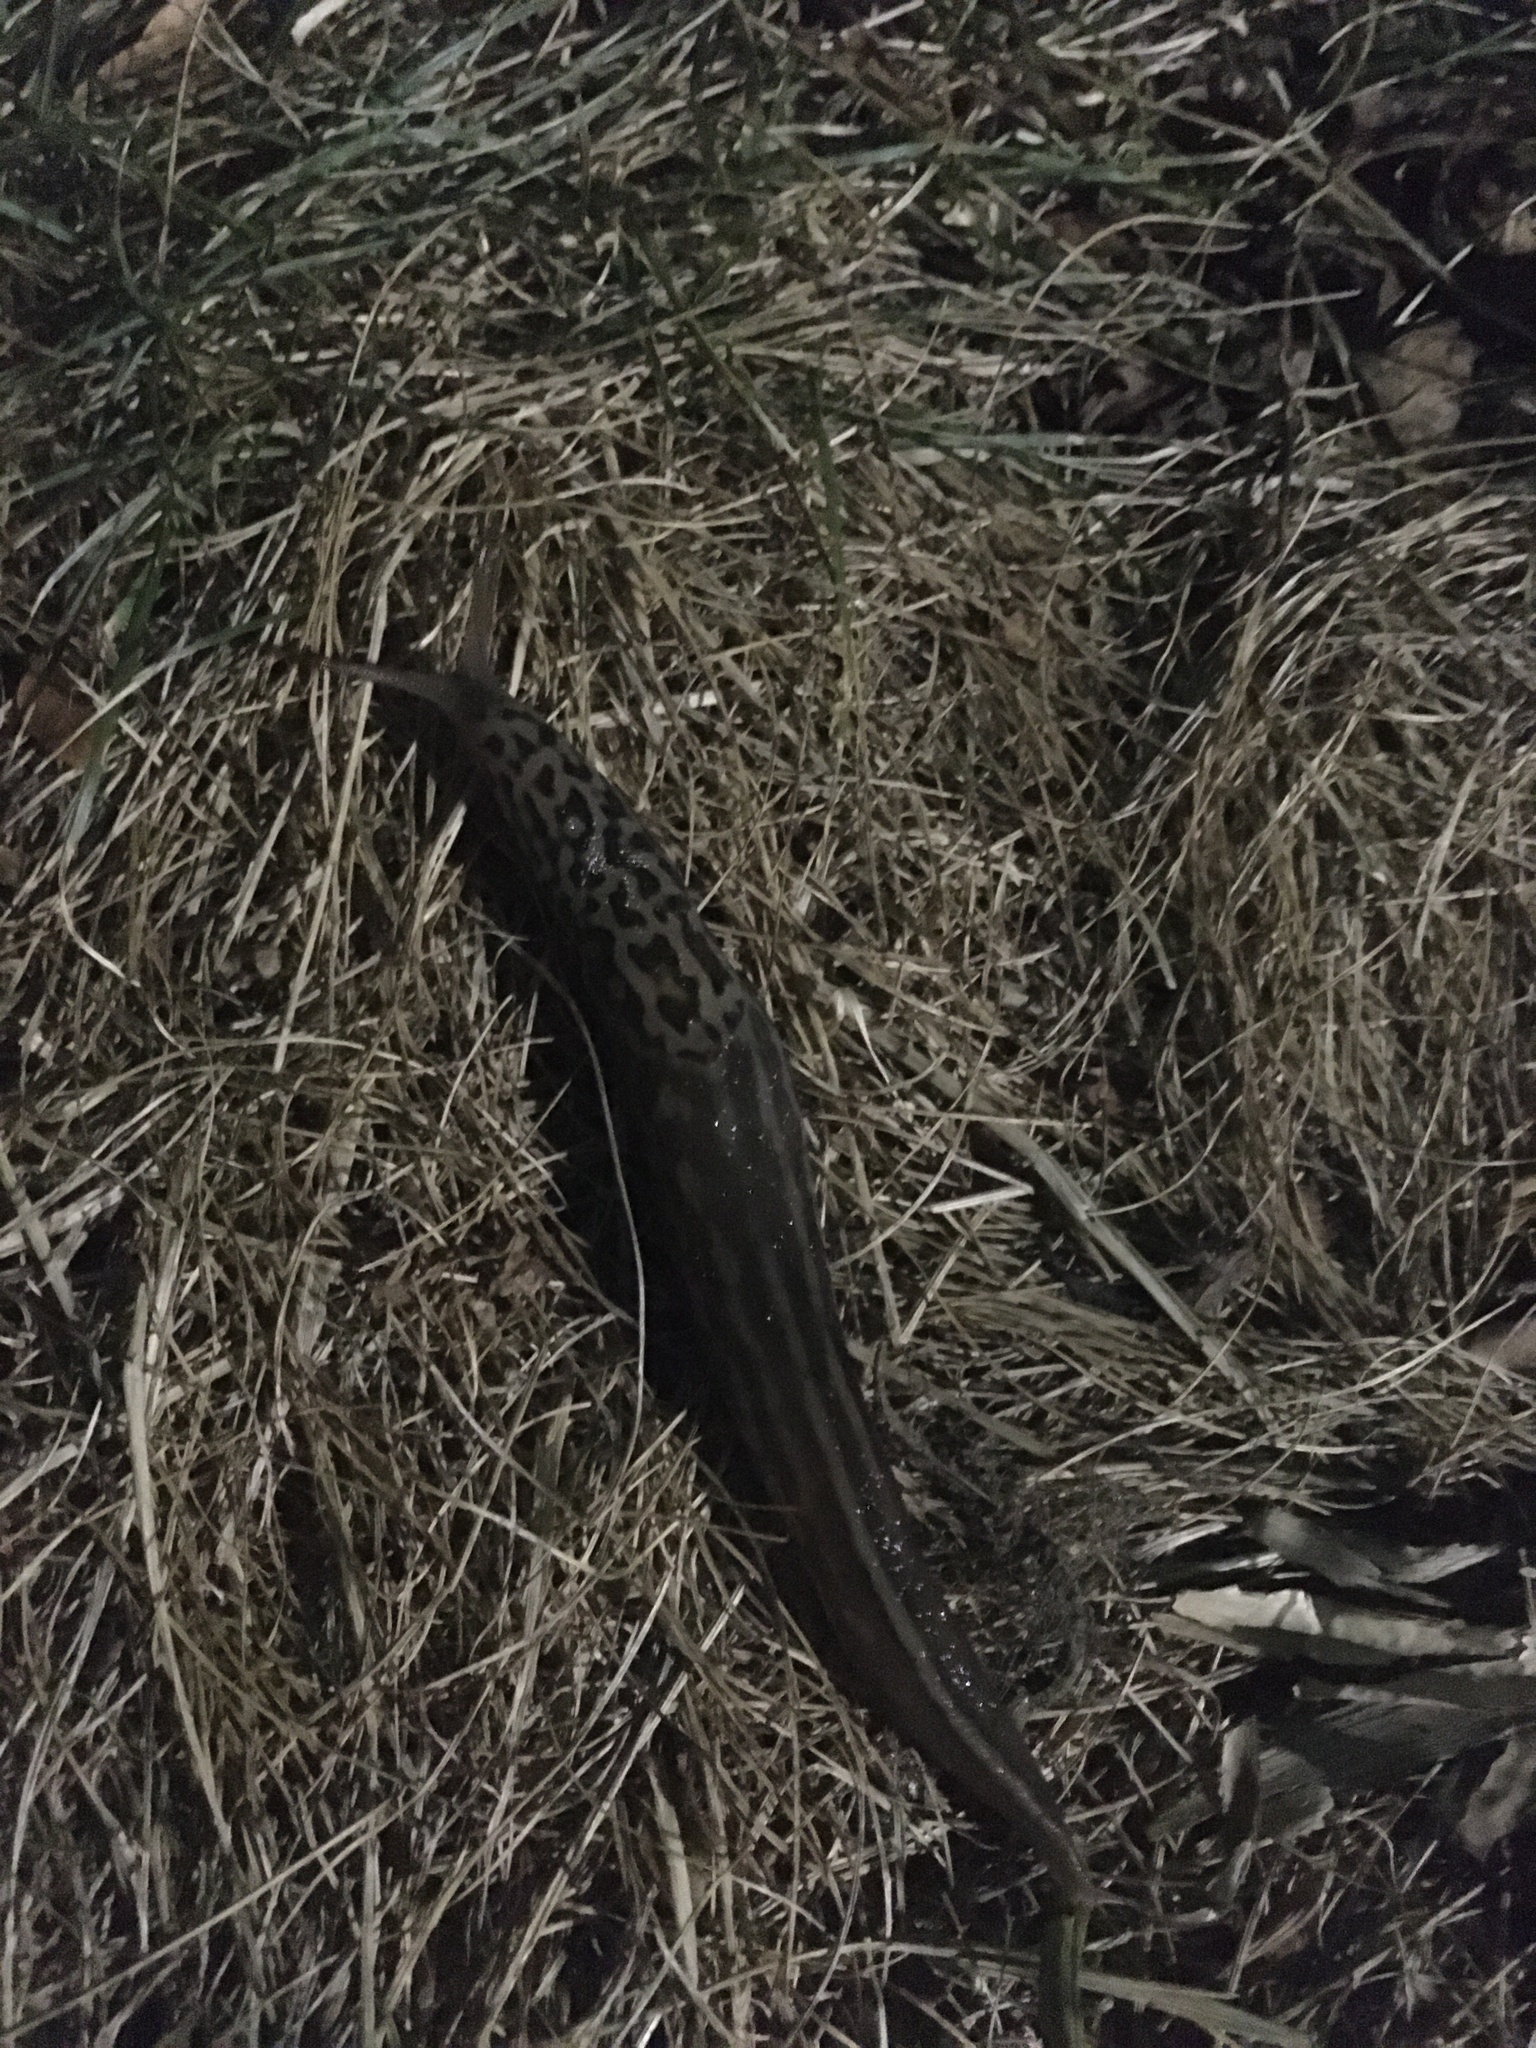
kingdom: Animalia
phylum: Mollusca
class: Gastropoda
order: Stylommatophora
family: Limacidae
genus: Limax
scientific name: Limax maximus
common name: Great grey slug
